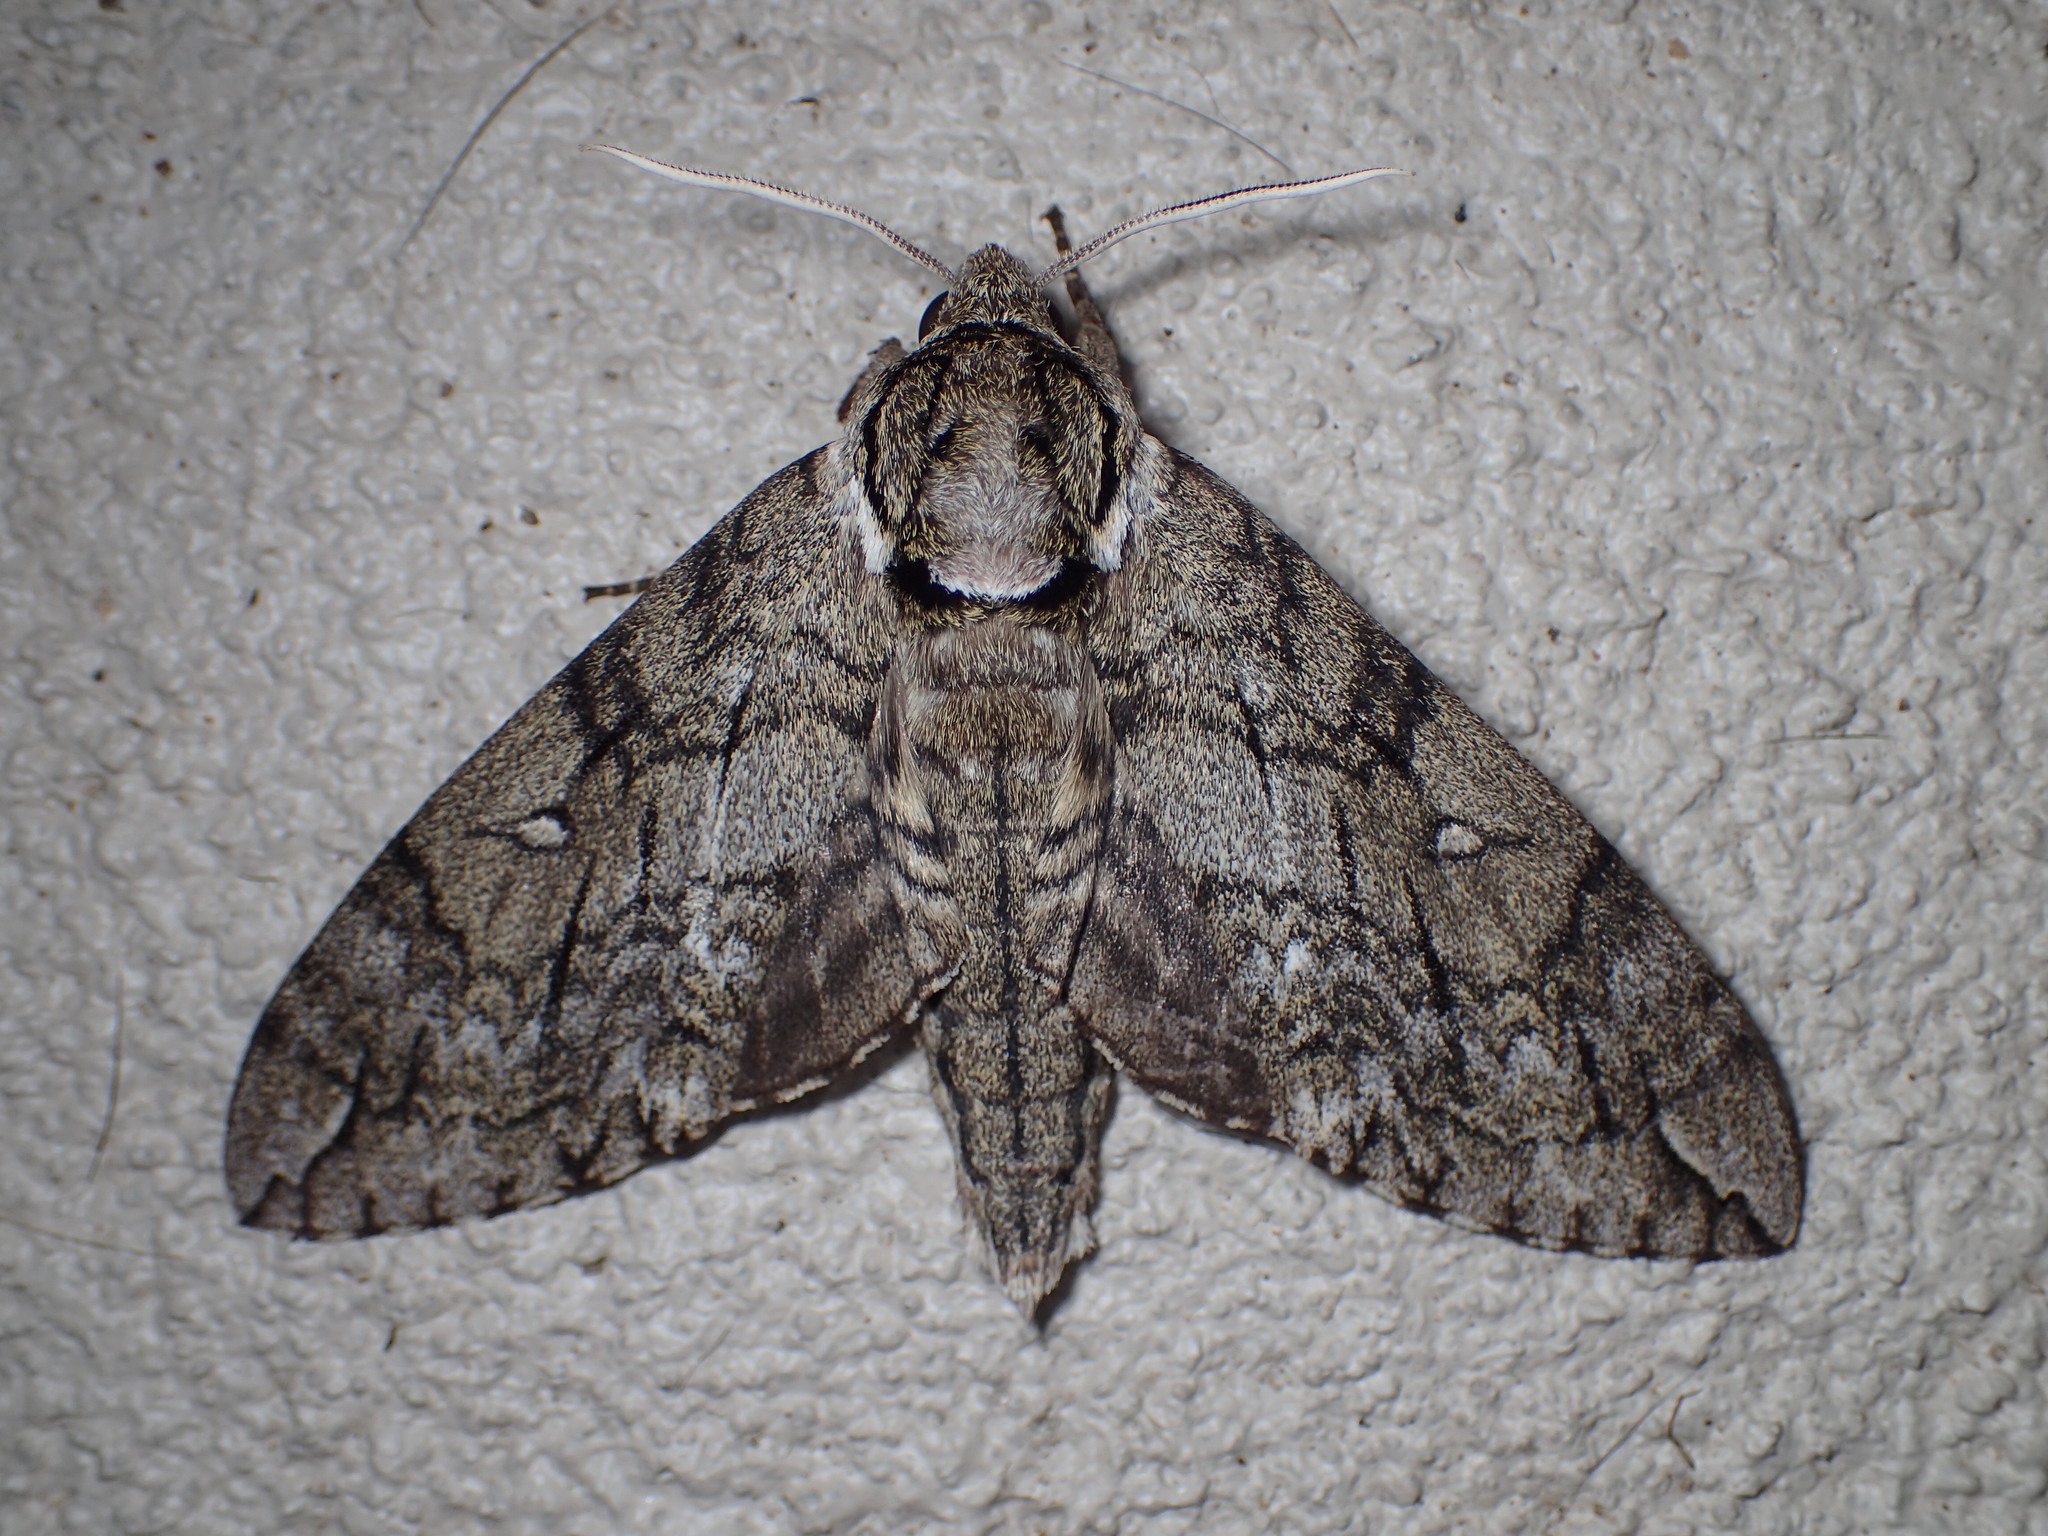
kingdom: Animalia
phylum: Arthropoda
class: Insecta
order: Lepidoptera
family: Sphingidae
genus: Ceratomia
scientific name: Ceratomia undulosa
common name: Waved sphinx
